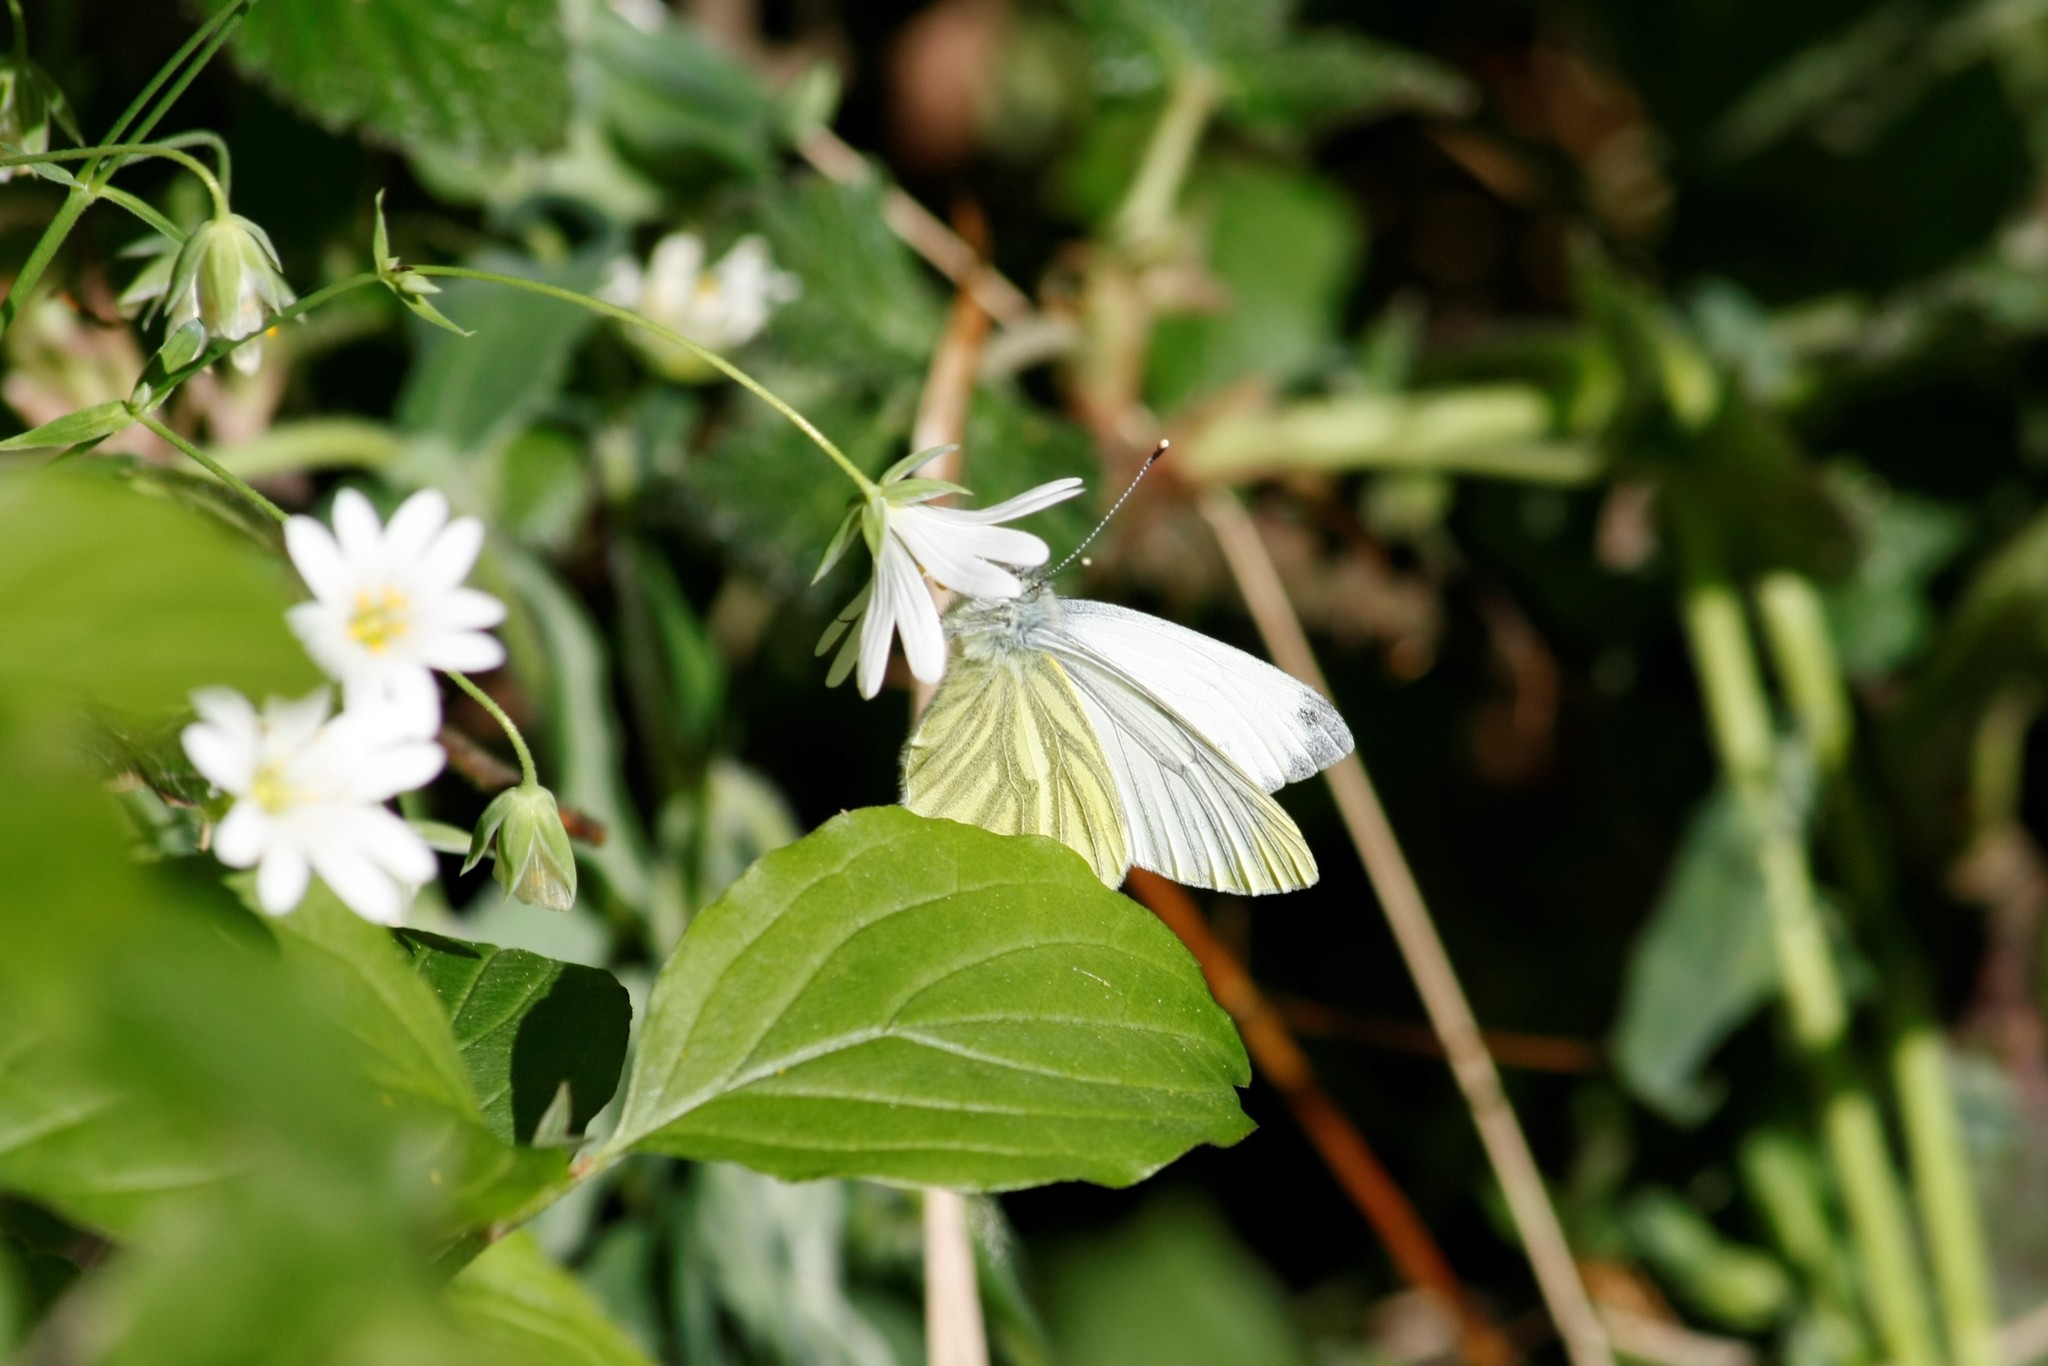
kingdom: Animalia
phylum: Arthropoda
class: Insecta
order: Lepidoptera
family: Pieridae
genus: Pieris
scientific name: Pieris napi
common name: Green-veined white
